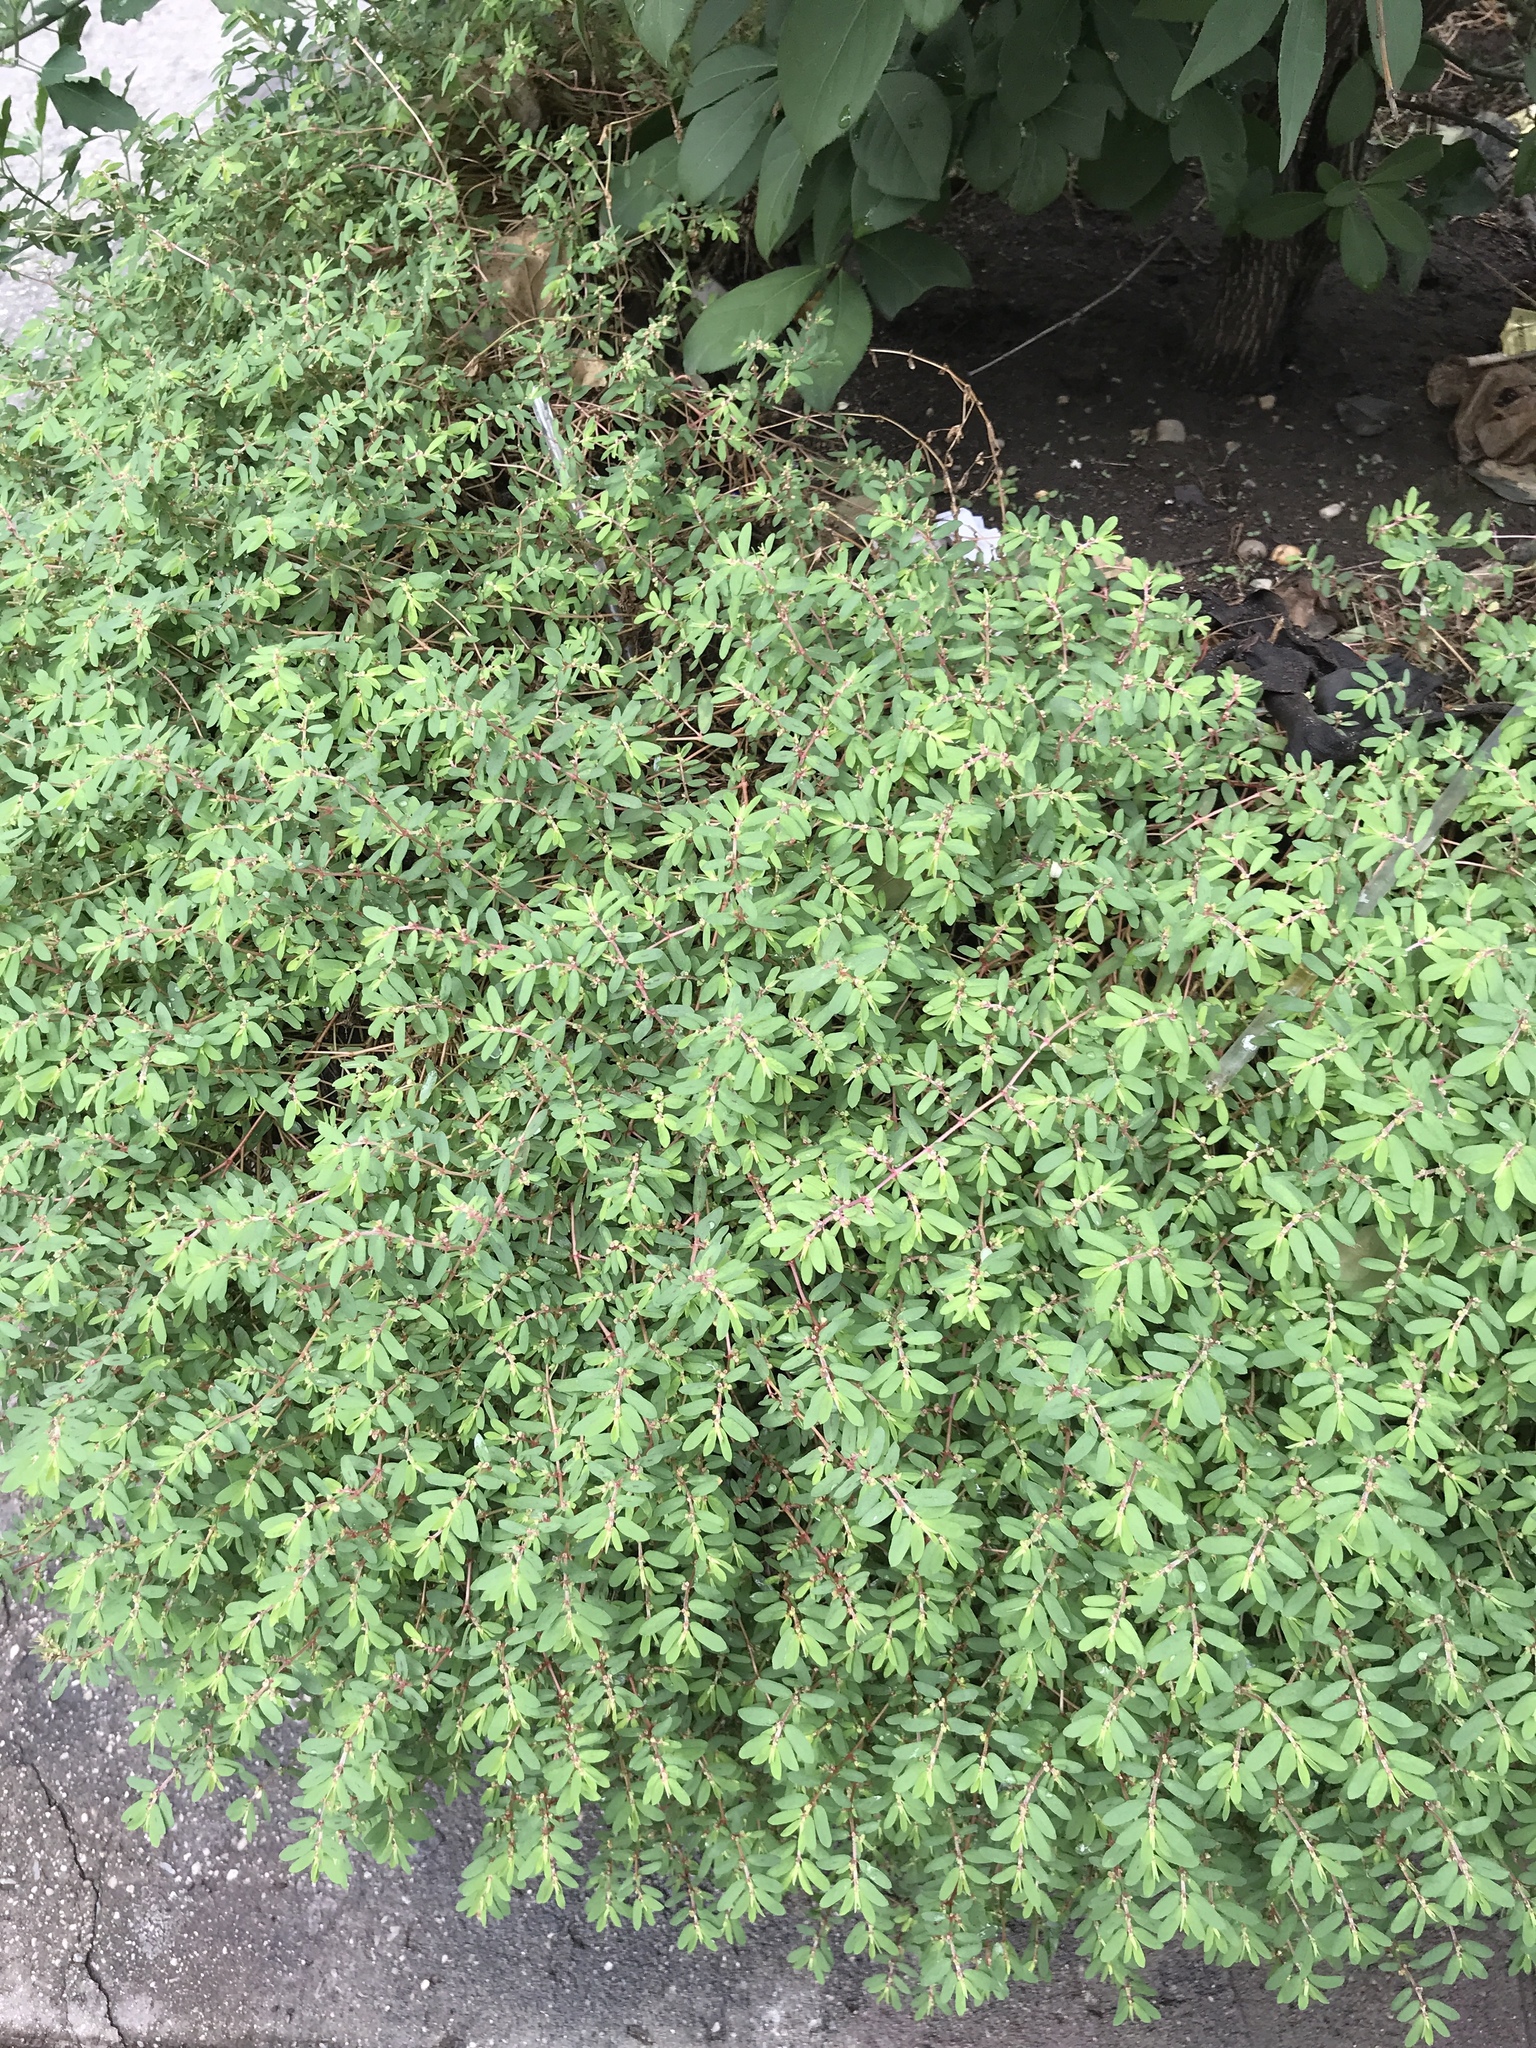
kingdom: Plantae
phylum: Tracheophyta
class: Magnoliopsida
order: Malpighiales
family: Euphorbiaceae
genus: Euphorbia
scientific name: Euphorbia maculata
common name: Spotted spurge
